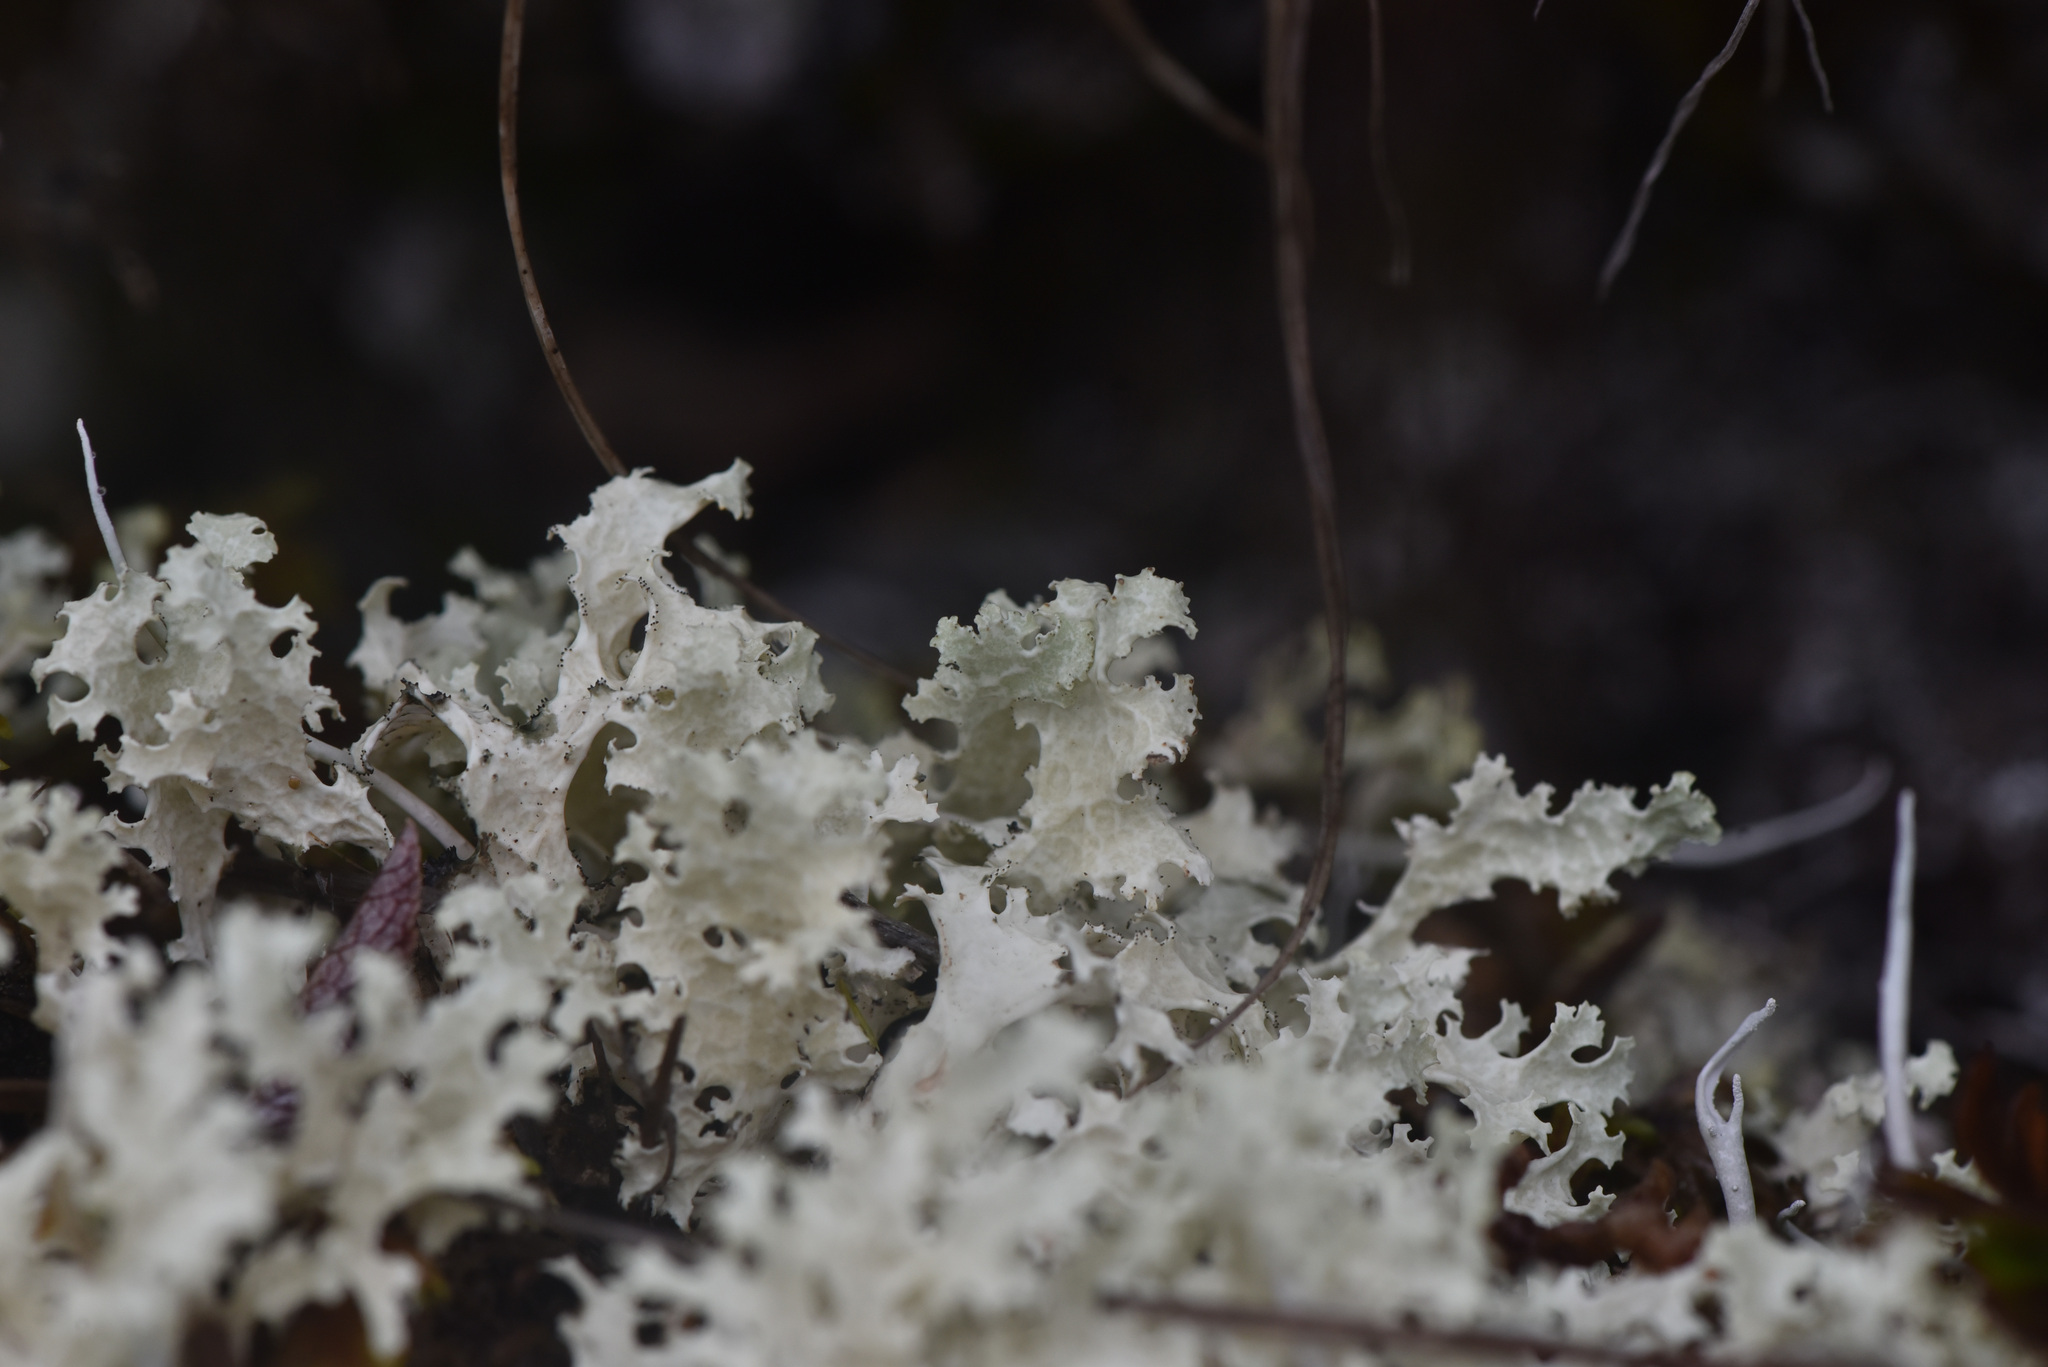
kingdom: Fungi
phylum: Ascomycota
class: Lecanoromycetes
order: Lecanorales
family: Parmeliaceae
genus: Nephromopsis
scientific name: Nephromopsis nivalis
